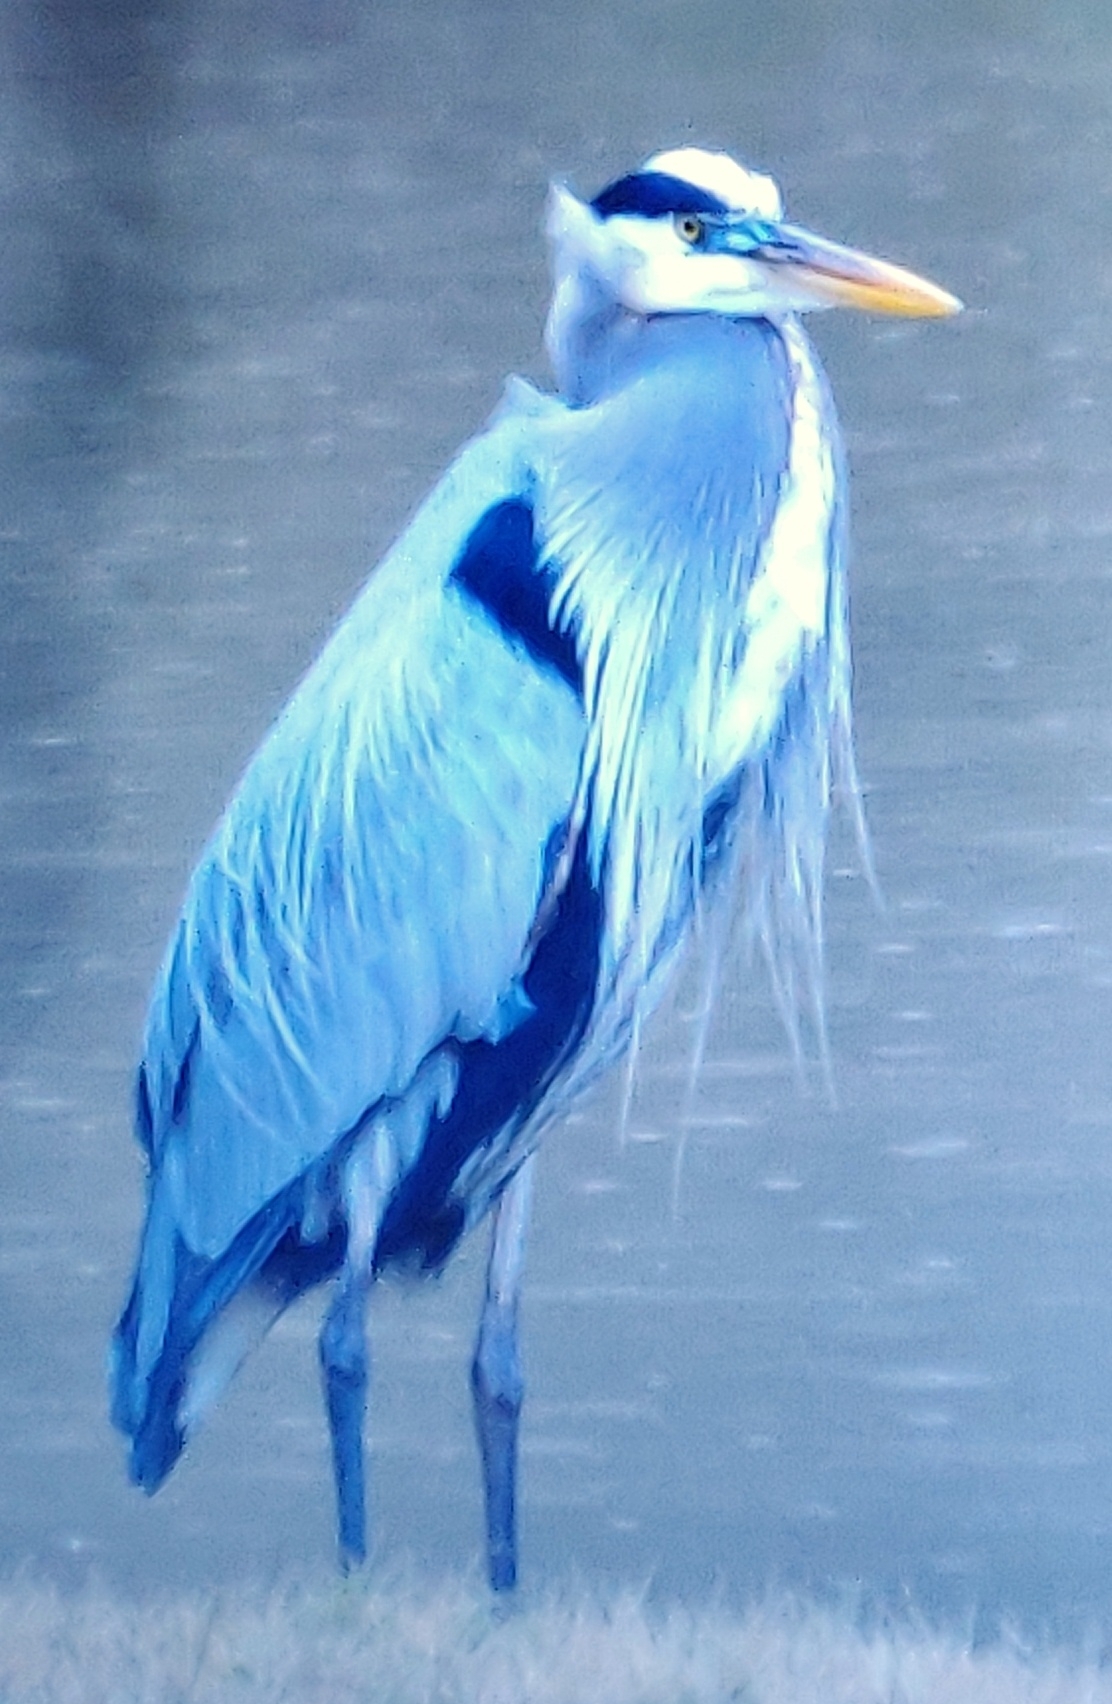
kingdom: Animalia
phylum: Chordata
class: Aves
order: Pelecaniformes
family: Ardeidae
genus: Ardea
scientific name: Ardea herodias
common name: Great blue heron
